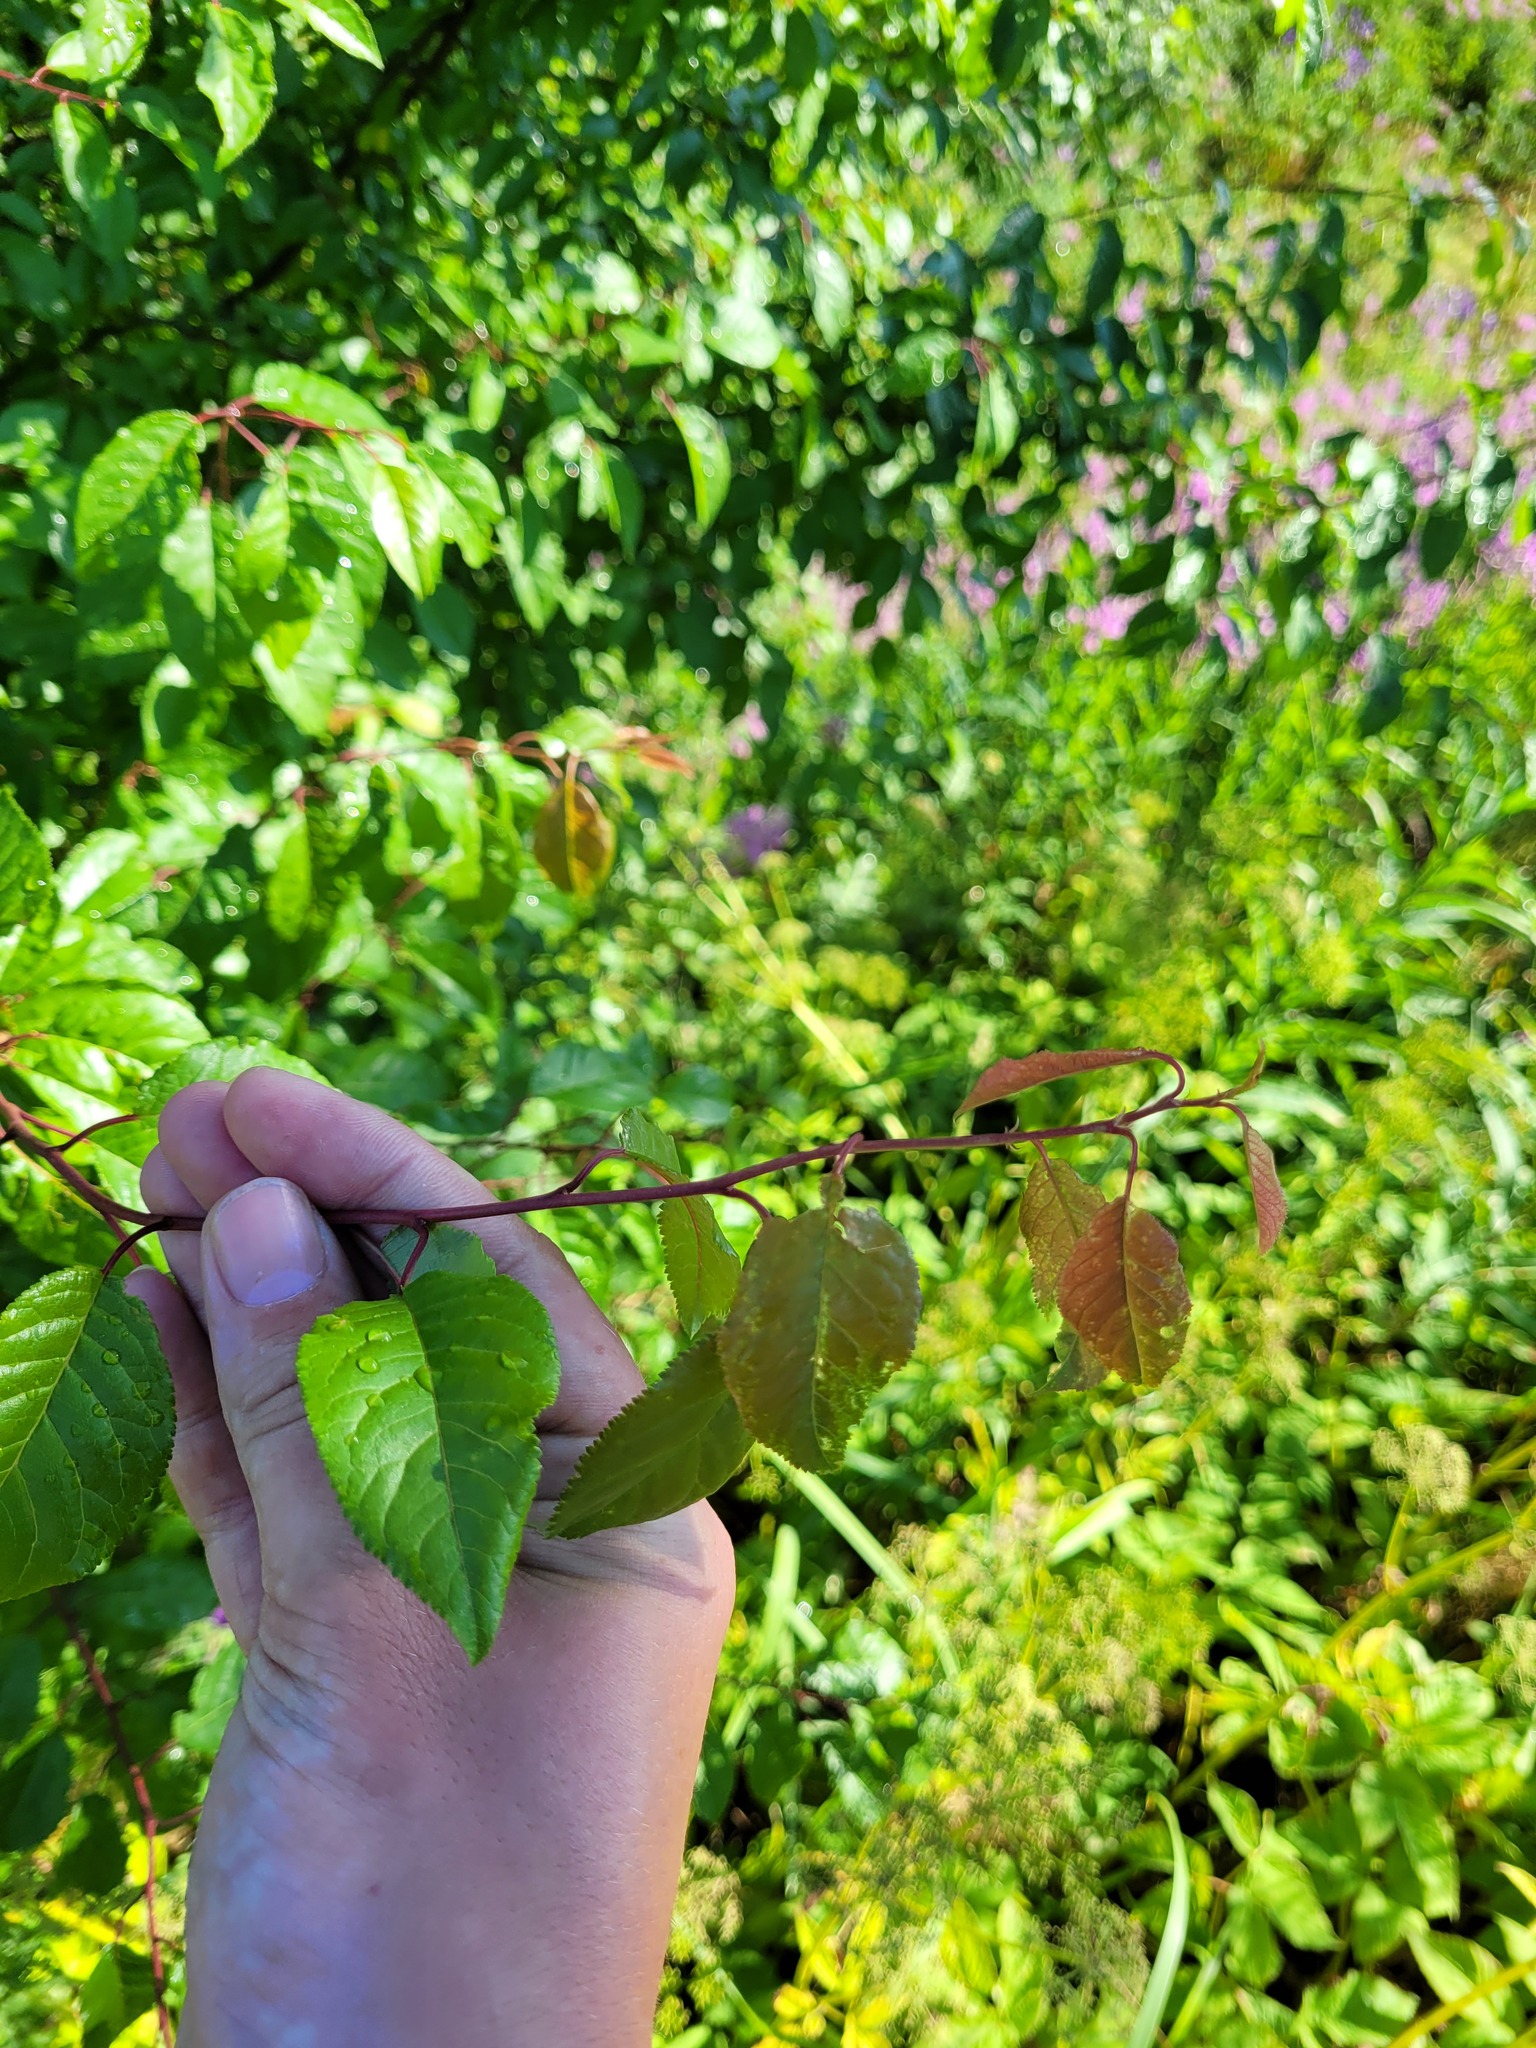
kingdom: Plantae
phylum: Tracheophyta
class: Magnoliopsida
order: Rosales
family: Rosaceae
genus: Prunus
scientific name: Prunus cerasifera
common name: Cherry plum
